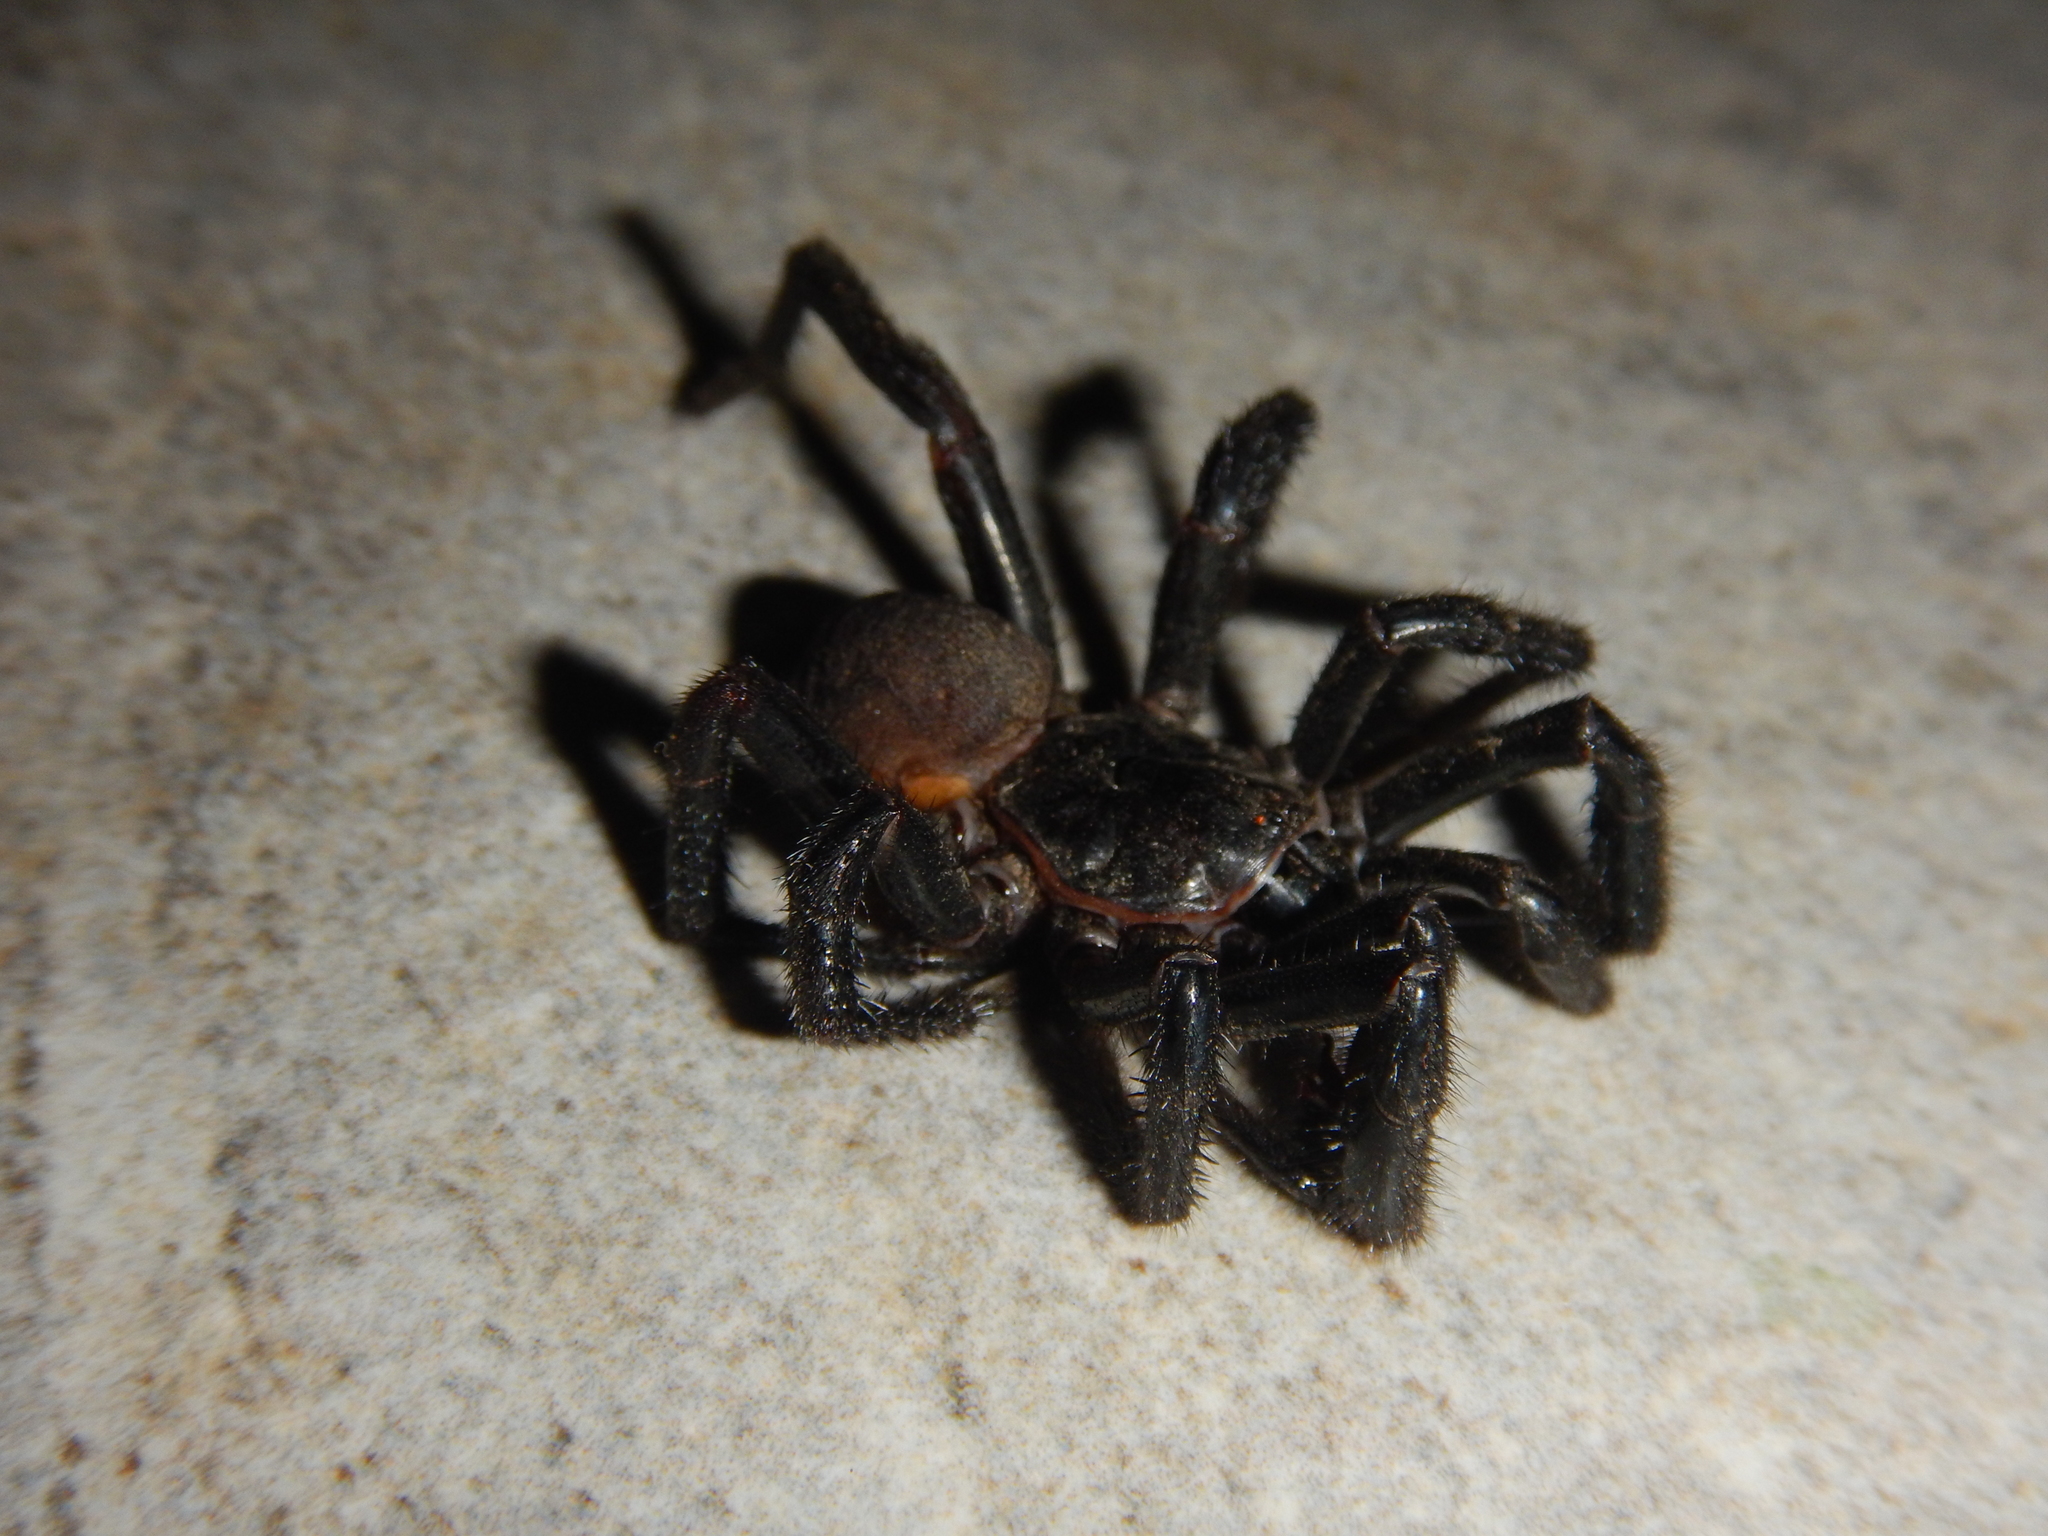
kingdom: Animalia
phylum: Arthropoda
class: Arachnida
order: Araneae
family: Ctenizidae
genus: Cyrtocarenum
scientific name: Cyrtocarenum
